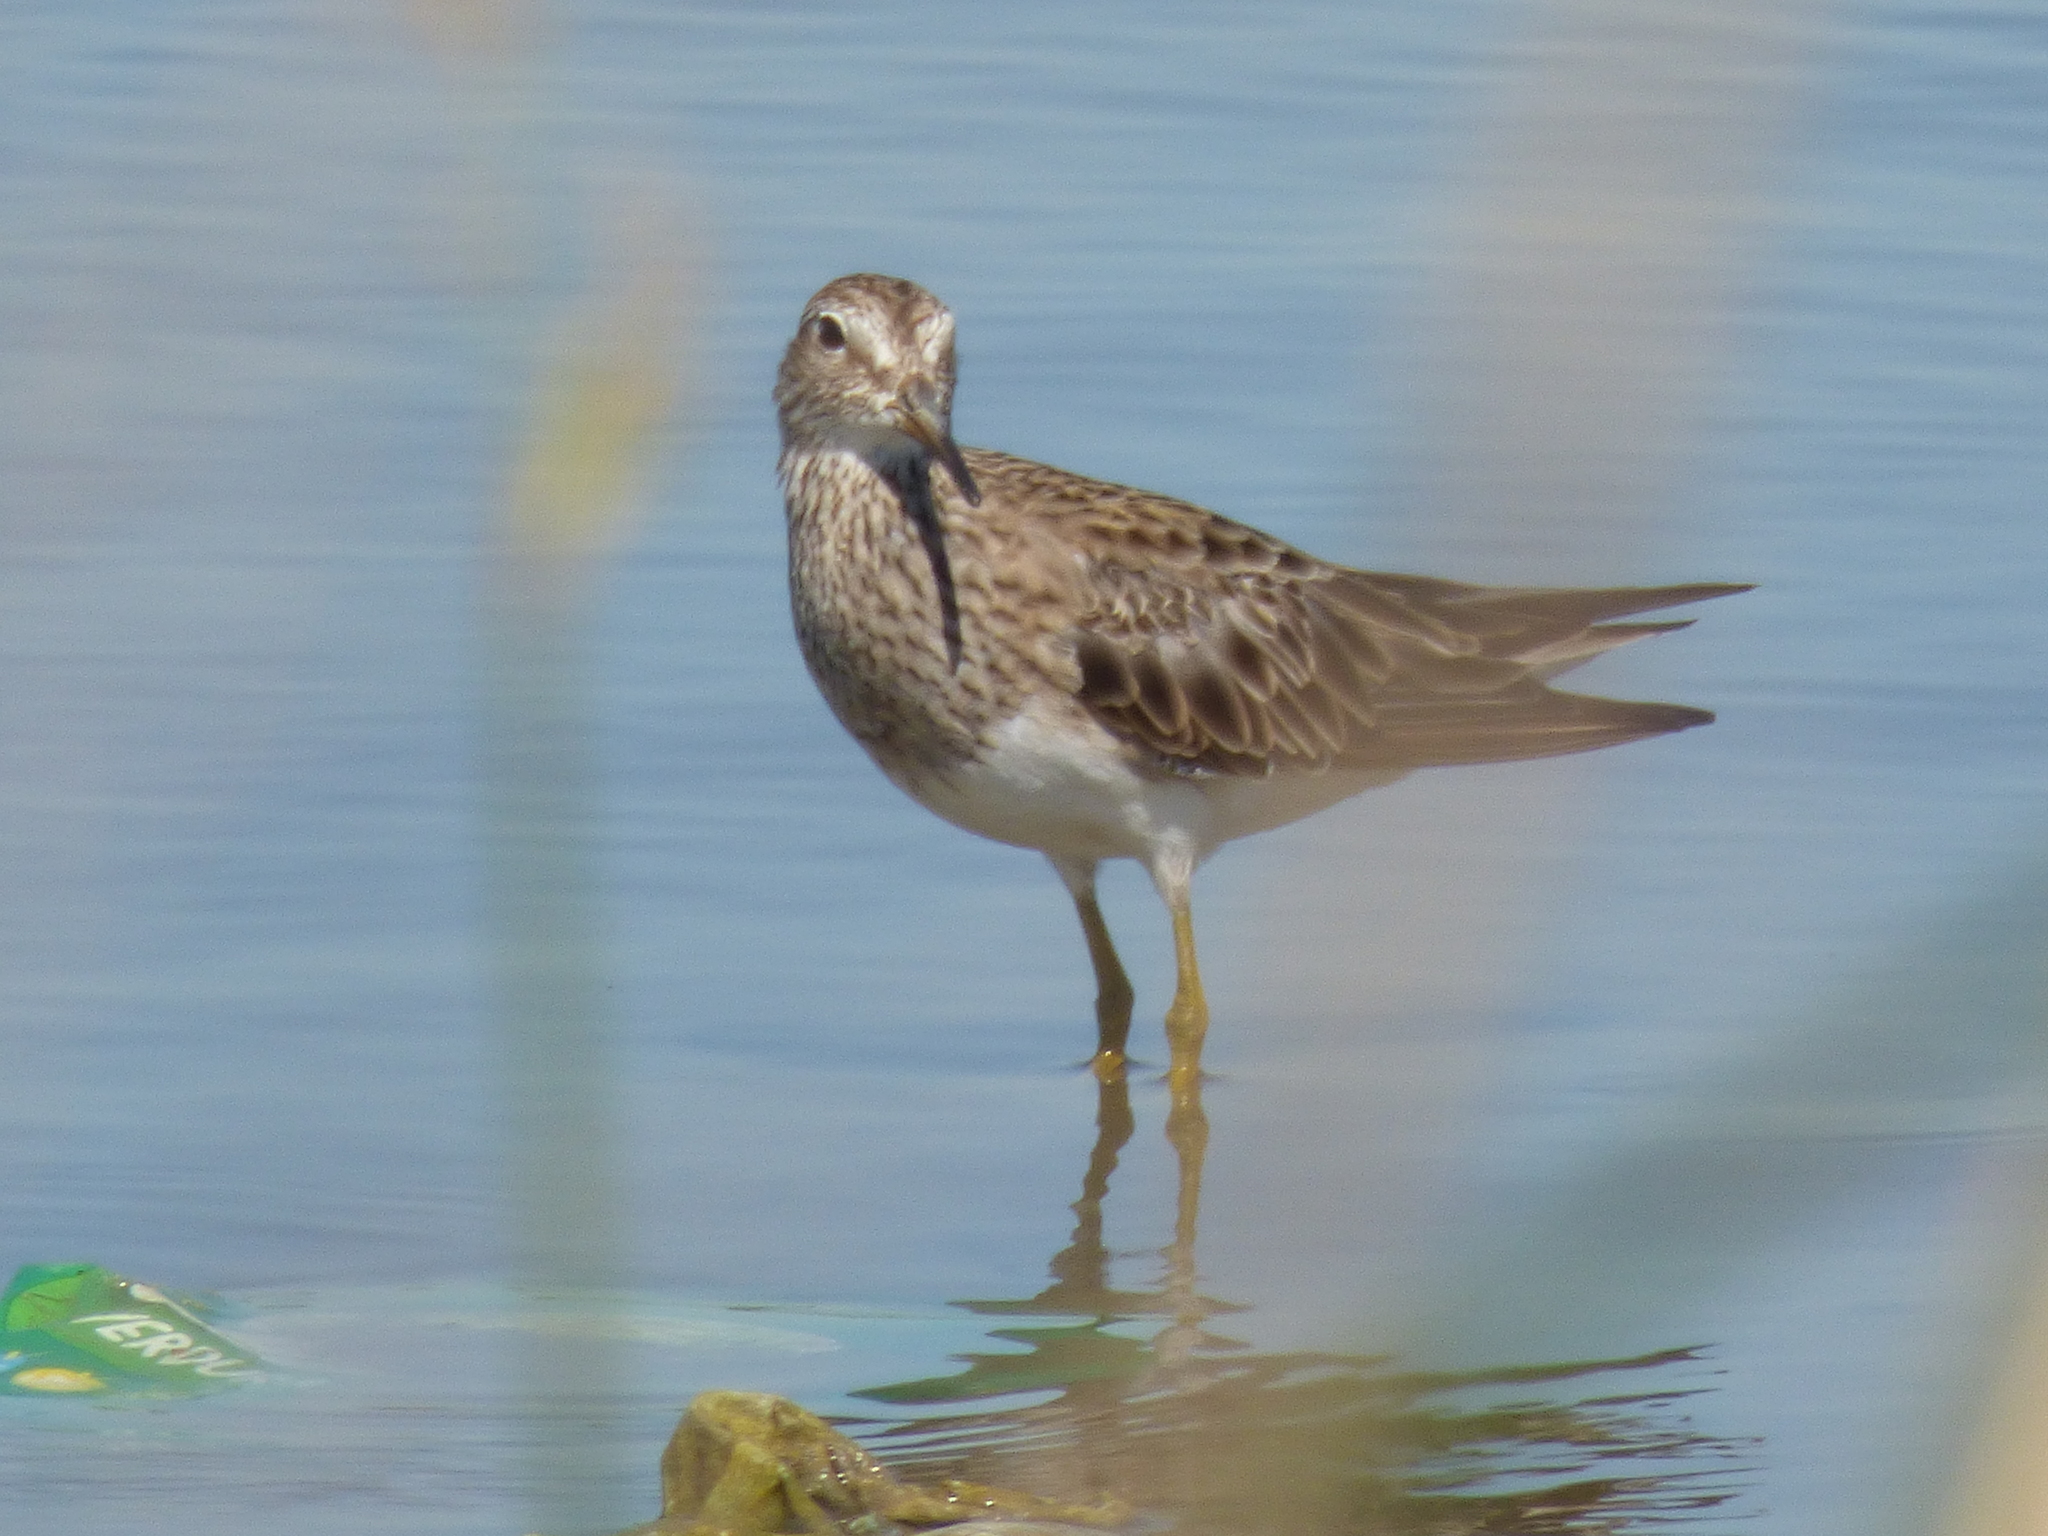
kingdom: Animalia
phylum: Chordata
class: Aves
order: Charadriiformes
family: Scolopacidae
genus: Calidris
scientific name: Calidris melanotos
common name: Pectoral sandpiper
